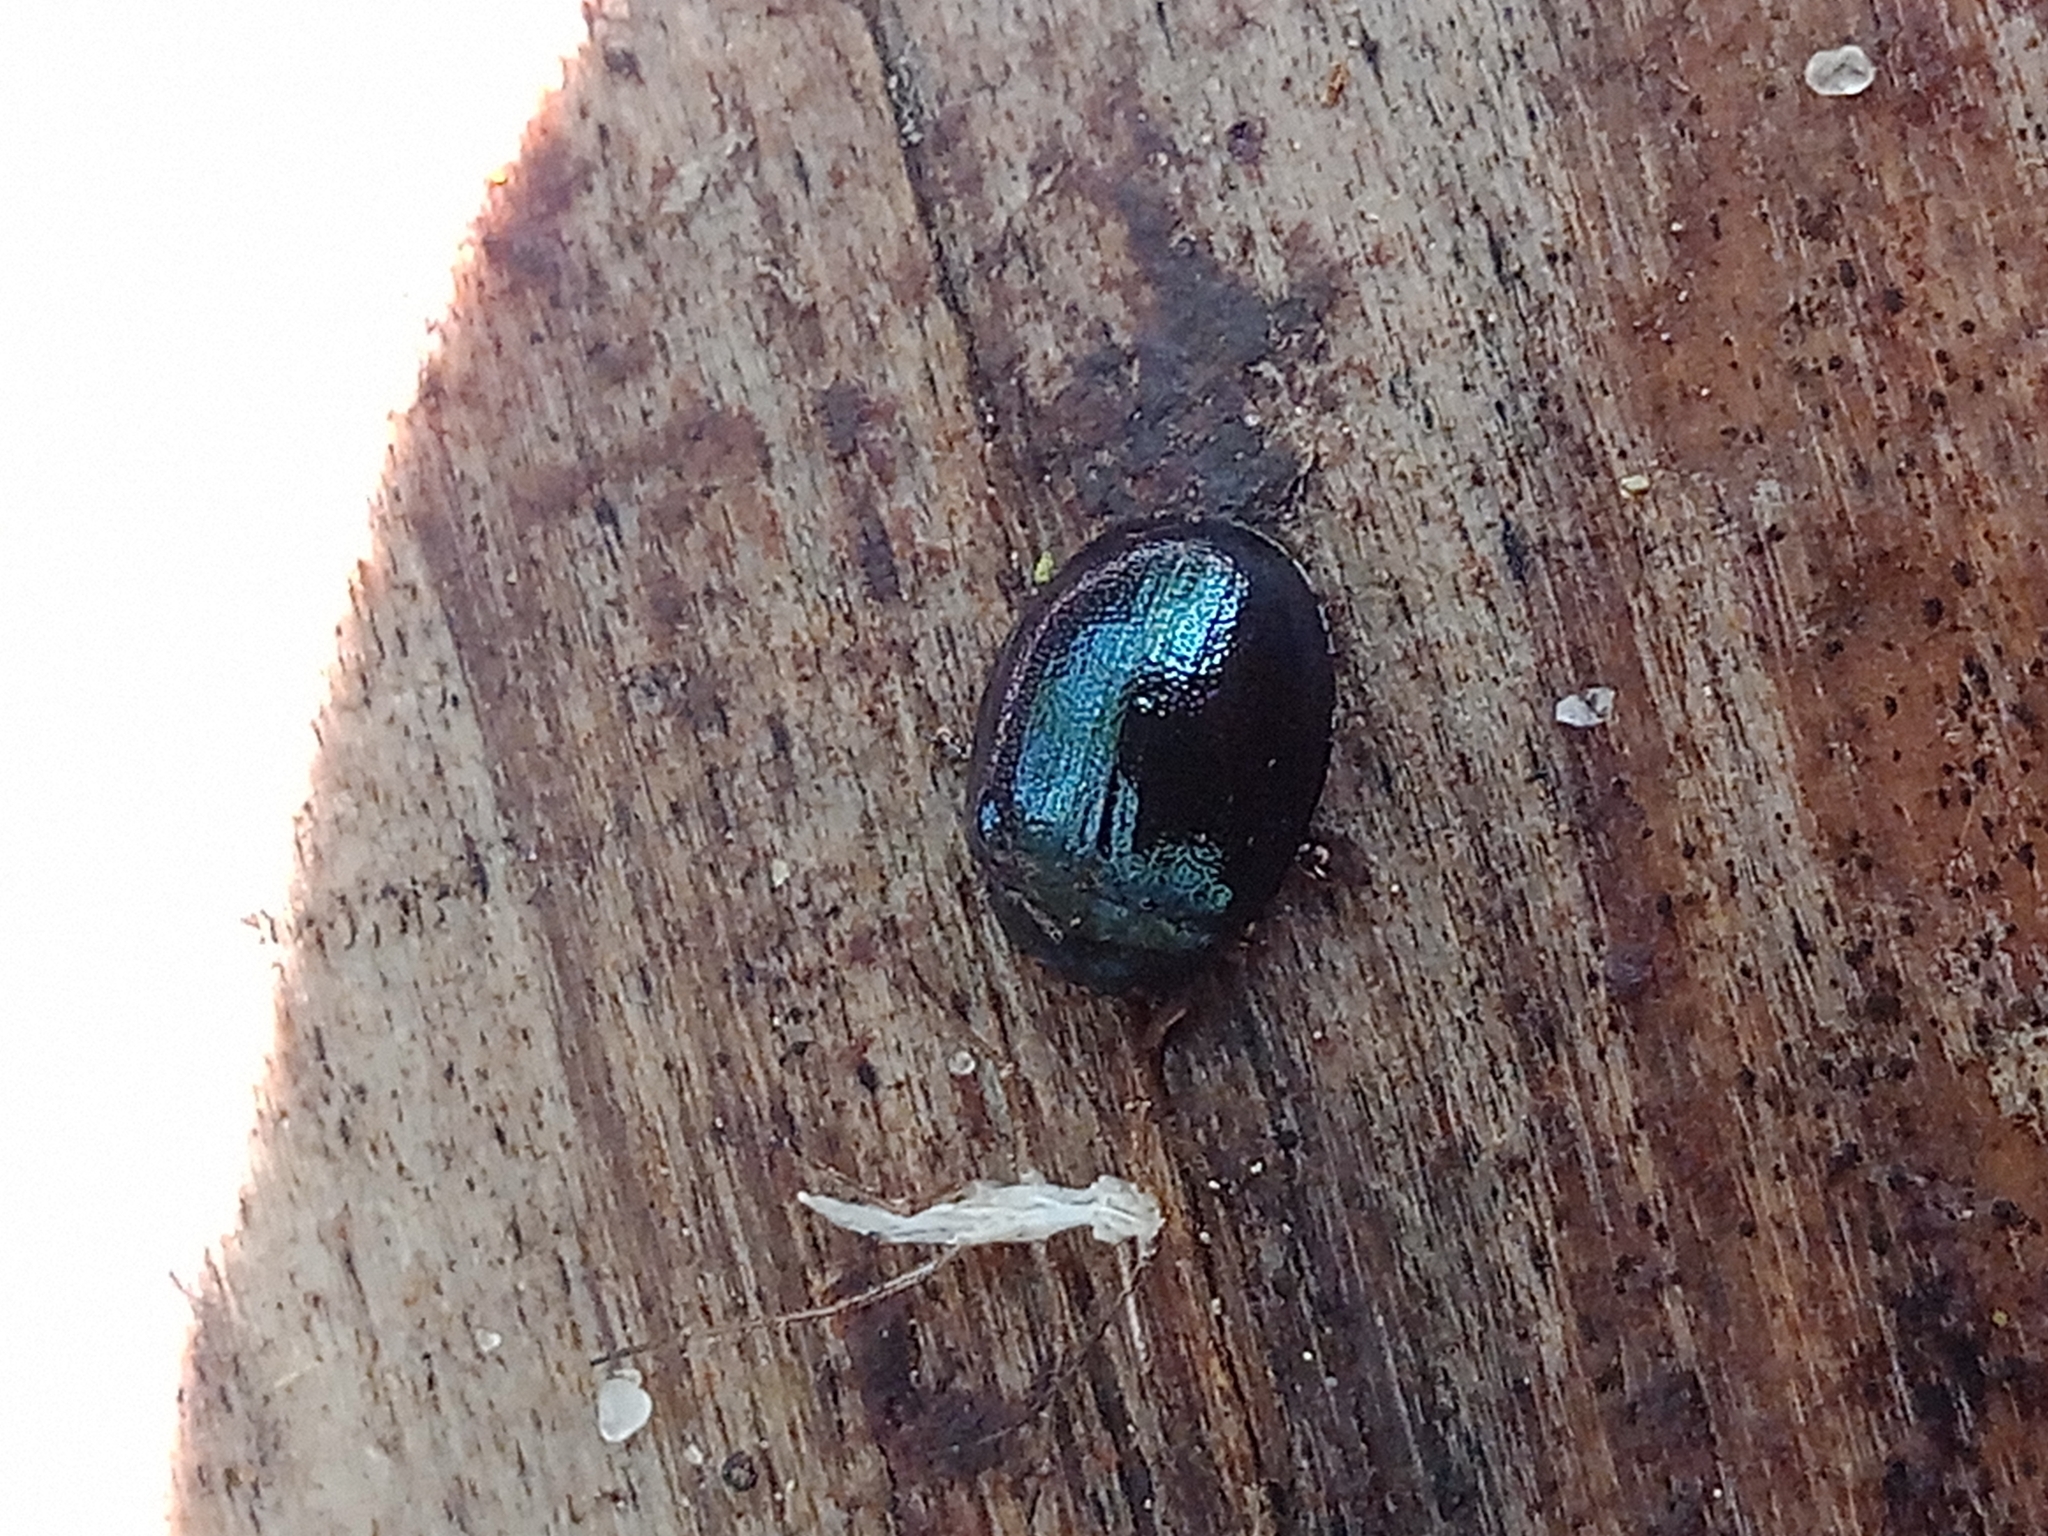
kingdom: Animalia
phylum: Arthropoda
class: Insecta
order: Coleoptera
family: Chrysomelidae
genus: Plagiodera
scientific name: Plagiodera versicolora
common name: Imported willow leaf beetle
